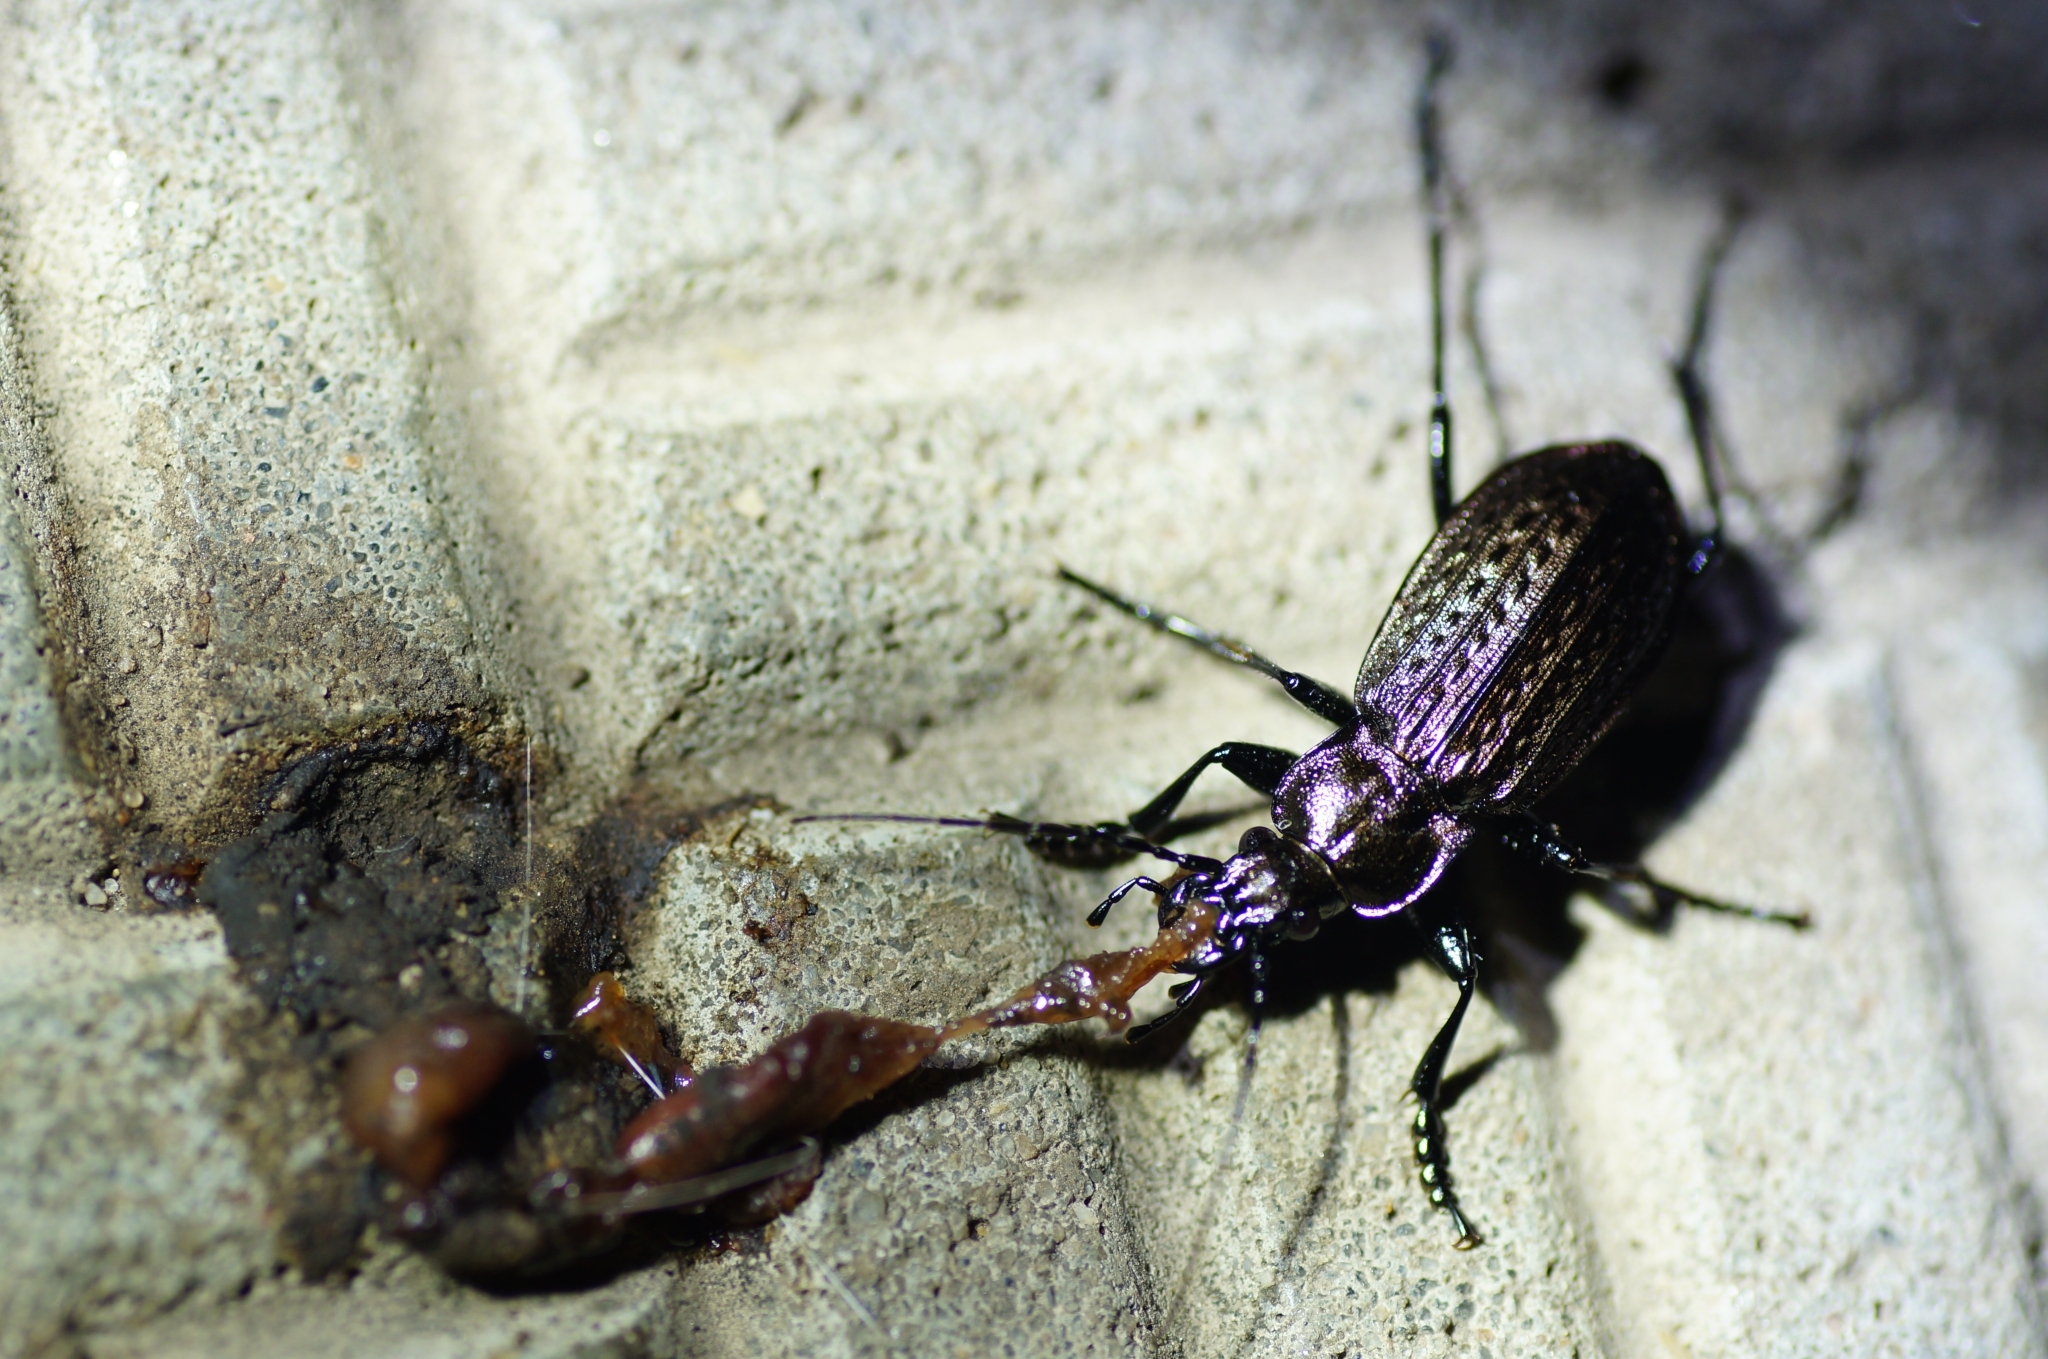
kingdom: Animalia
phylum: Arthropoda
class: Insecta
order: Coleoptera
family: Carabidae
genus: Carabus
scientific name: Carabus granulatus
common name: Granulate ground beetle
